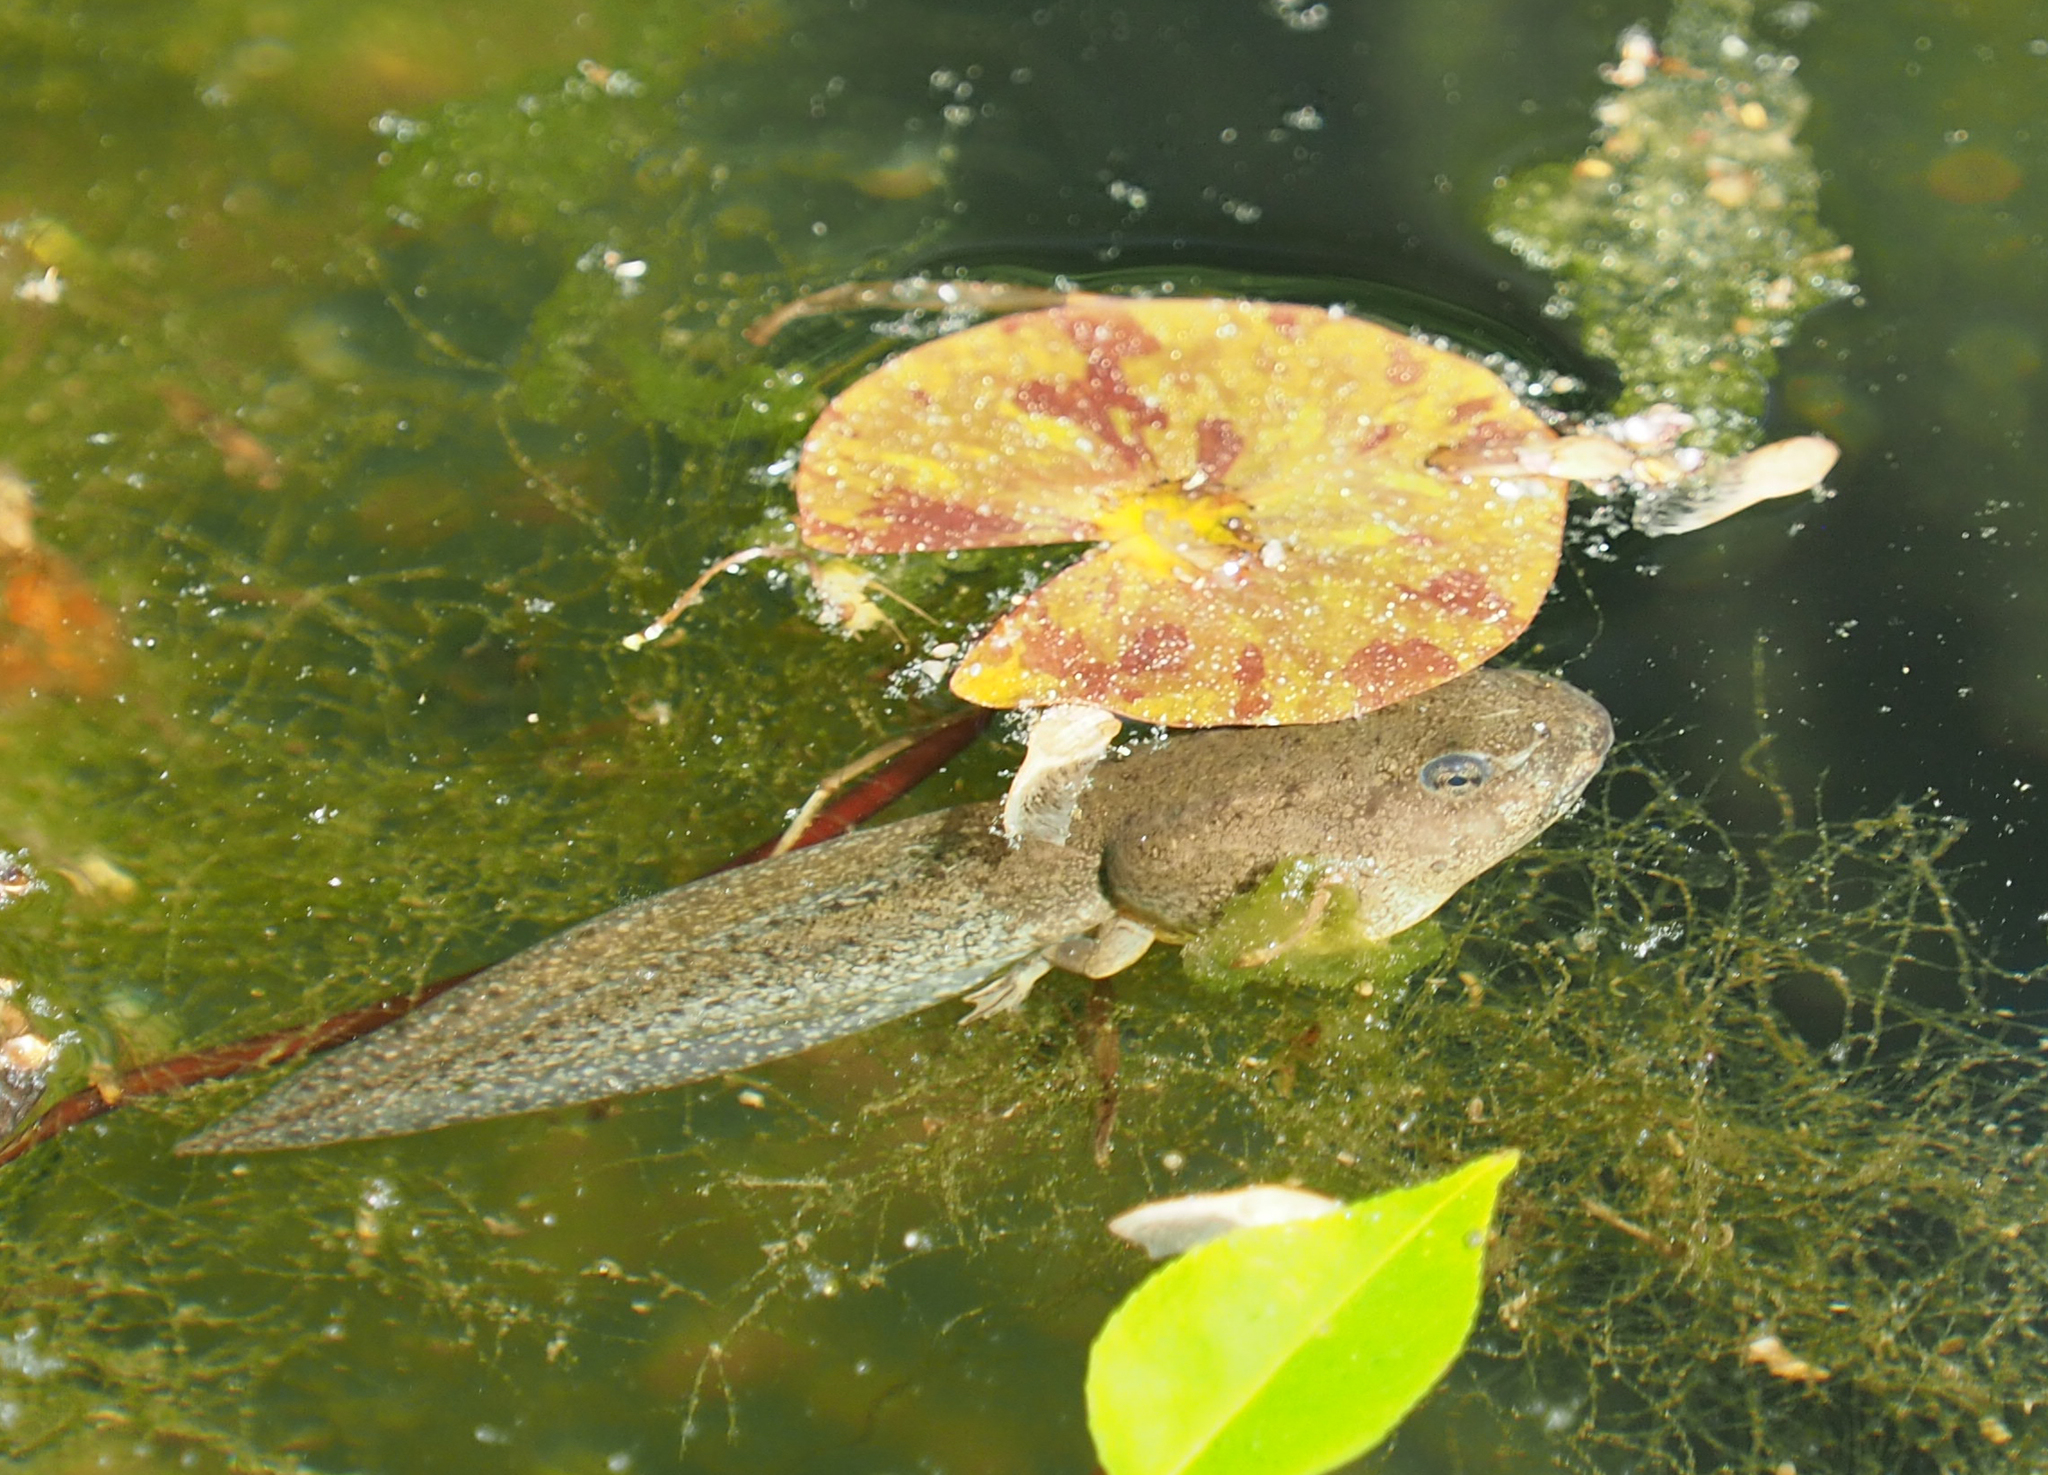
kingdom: Animalia
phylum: Chordata
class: Amphibia
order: Anura
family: Ranidae
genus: Lithobates
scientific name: Lithobates catesbeianus
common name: American bullfrog
